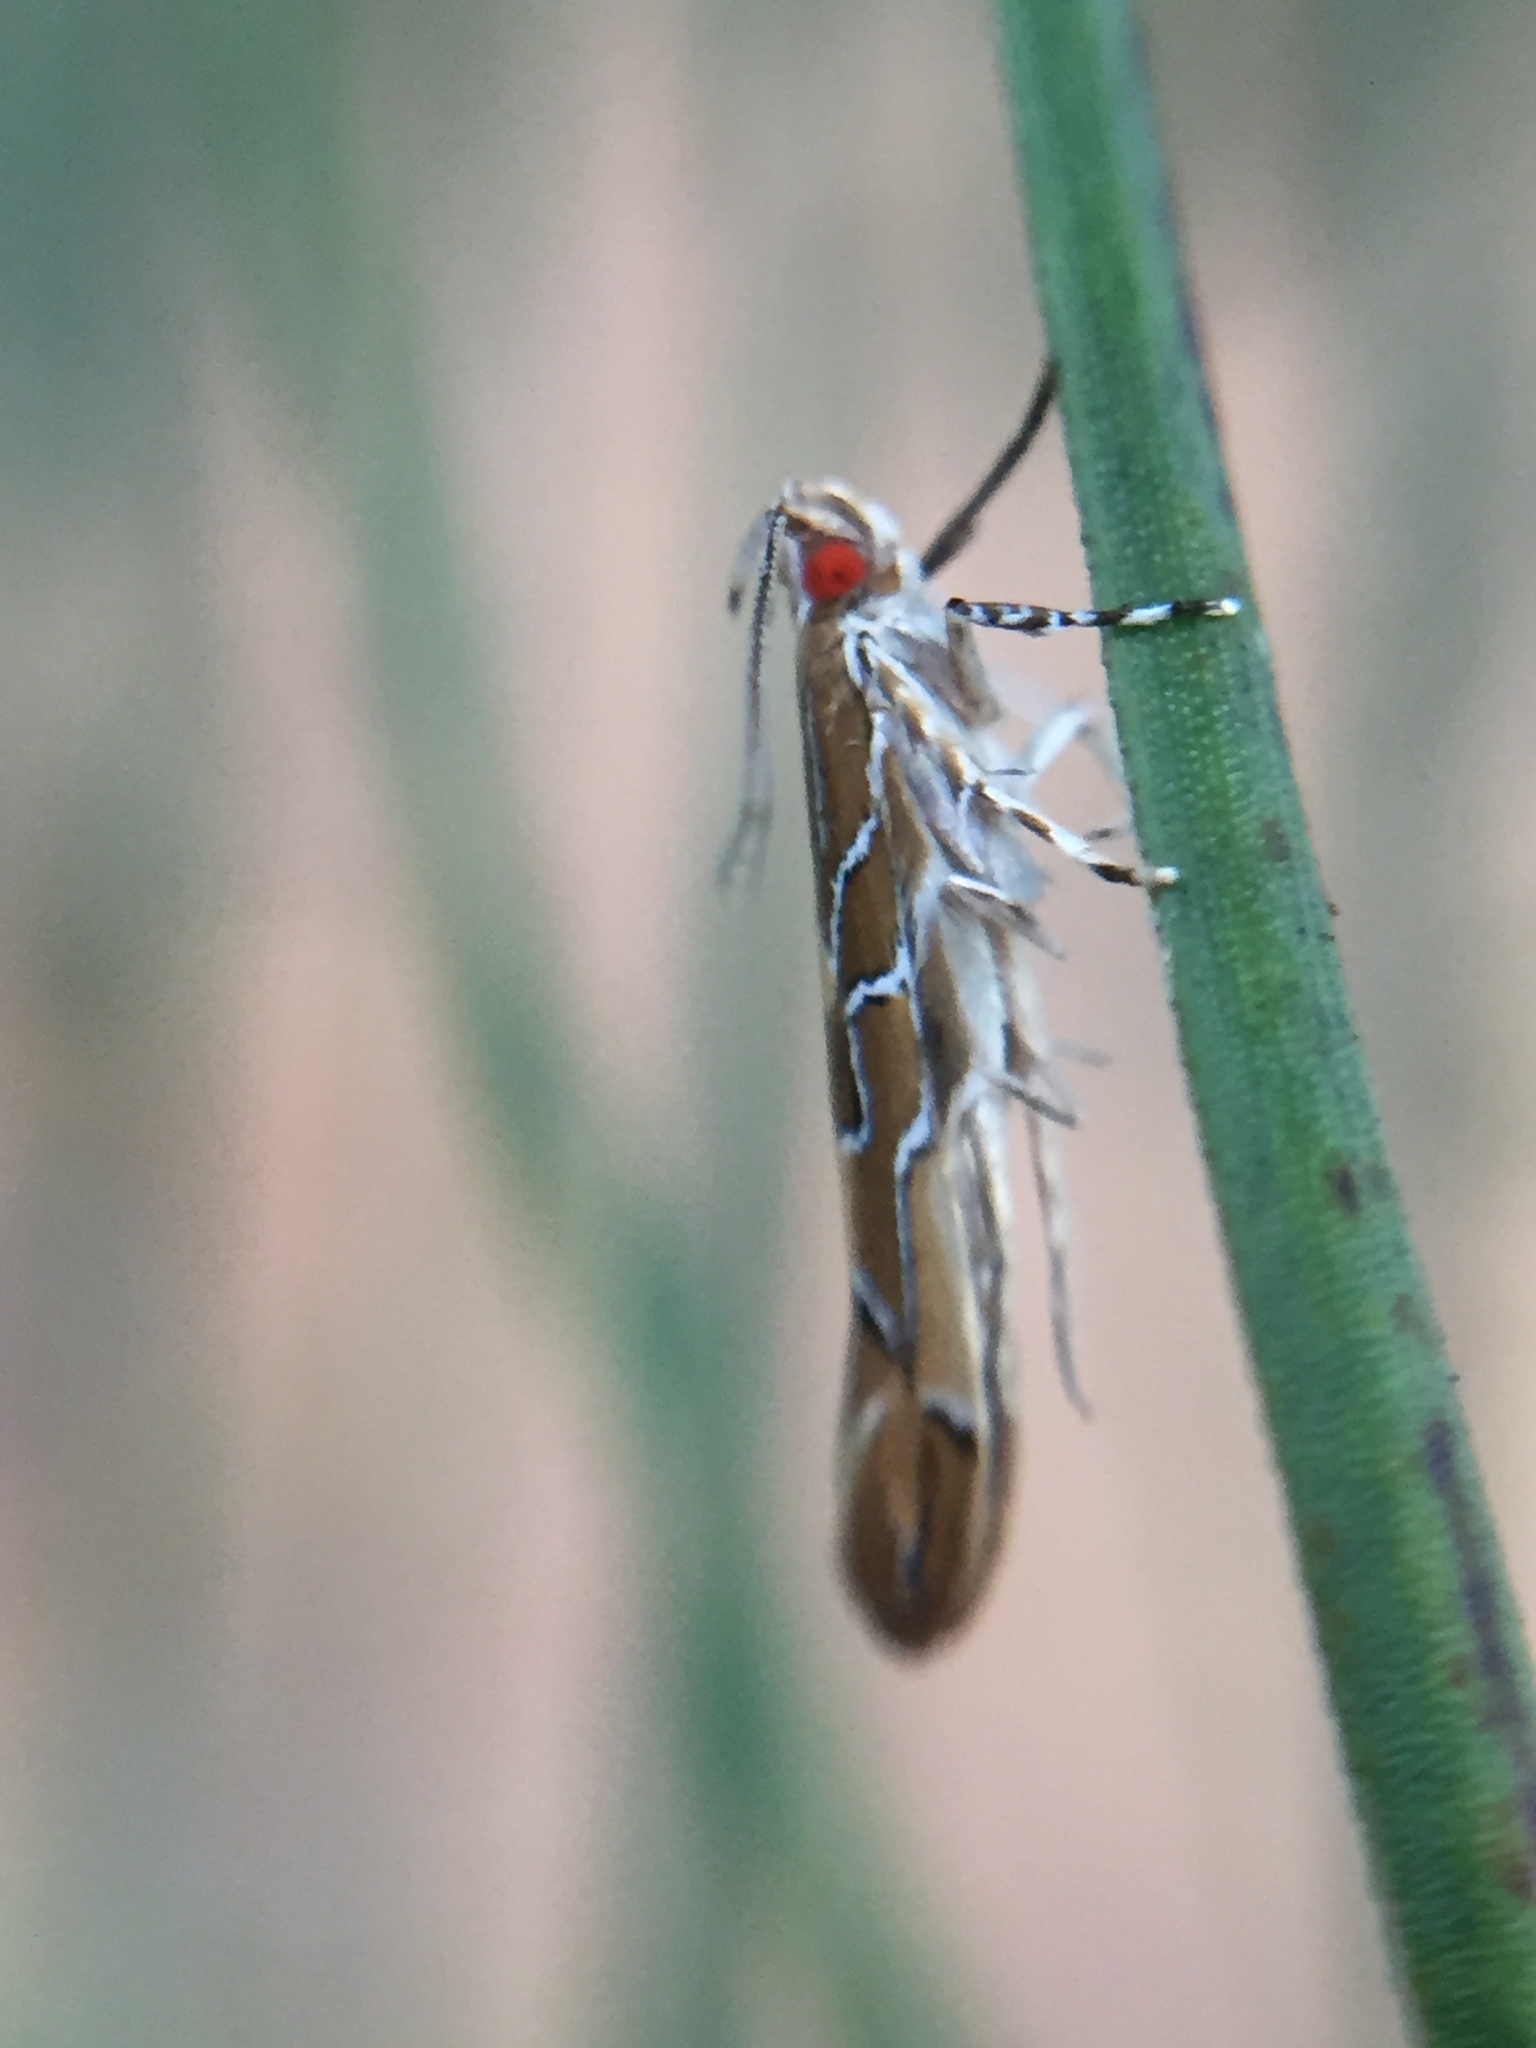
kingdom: Animalia
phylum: Arthropoda
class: Insecta
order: Lepidoptera
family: Cosmopterigidae
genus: Pyroderces
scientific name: Pyroderces apparitella
